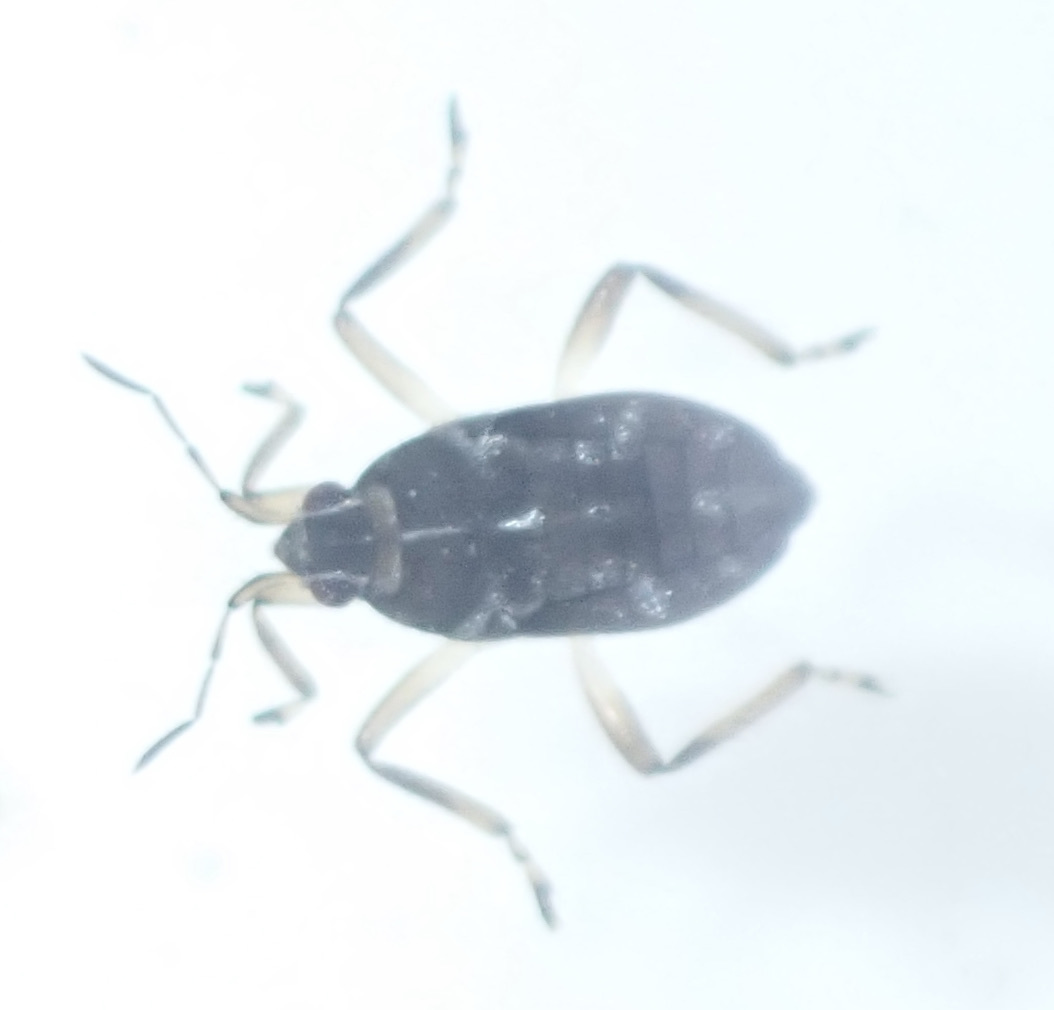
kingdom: Animalia
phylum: Arthropoda
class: Insecta
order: Hemiptera
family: Veliidae
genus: Microvelia
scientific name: Microvelia
